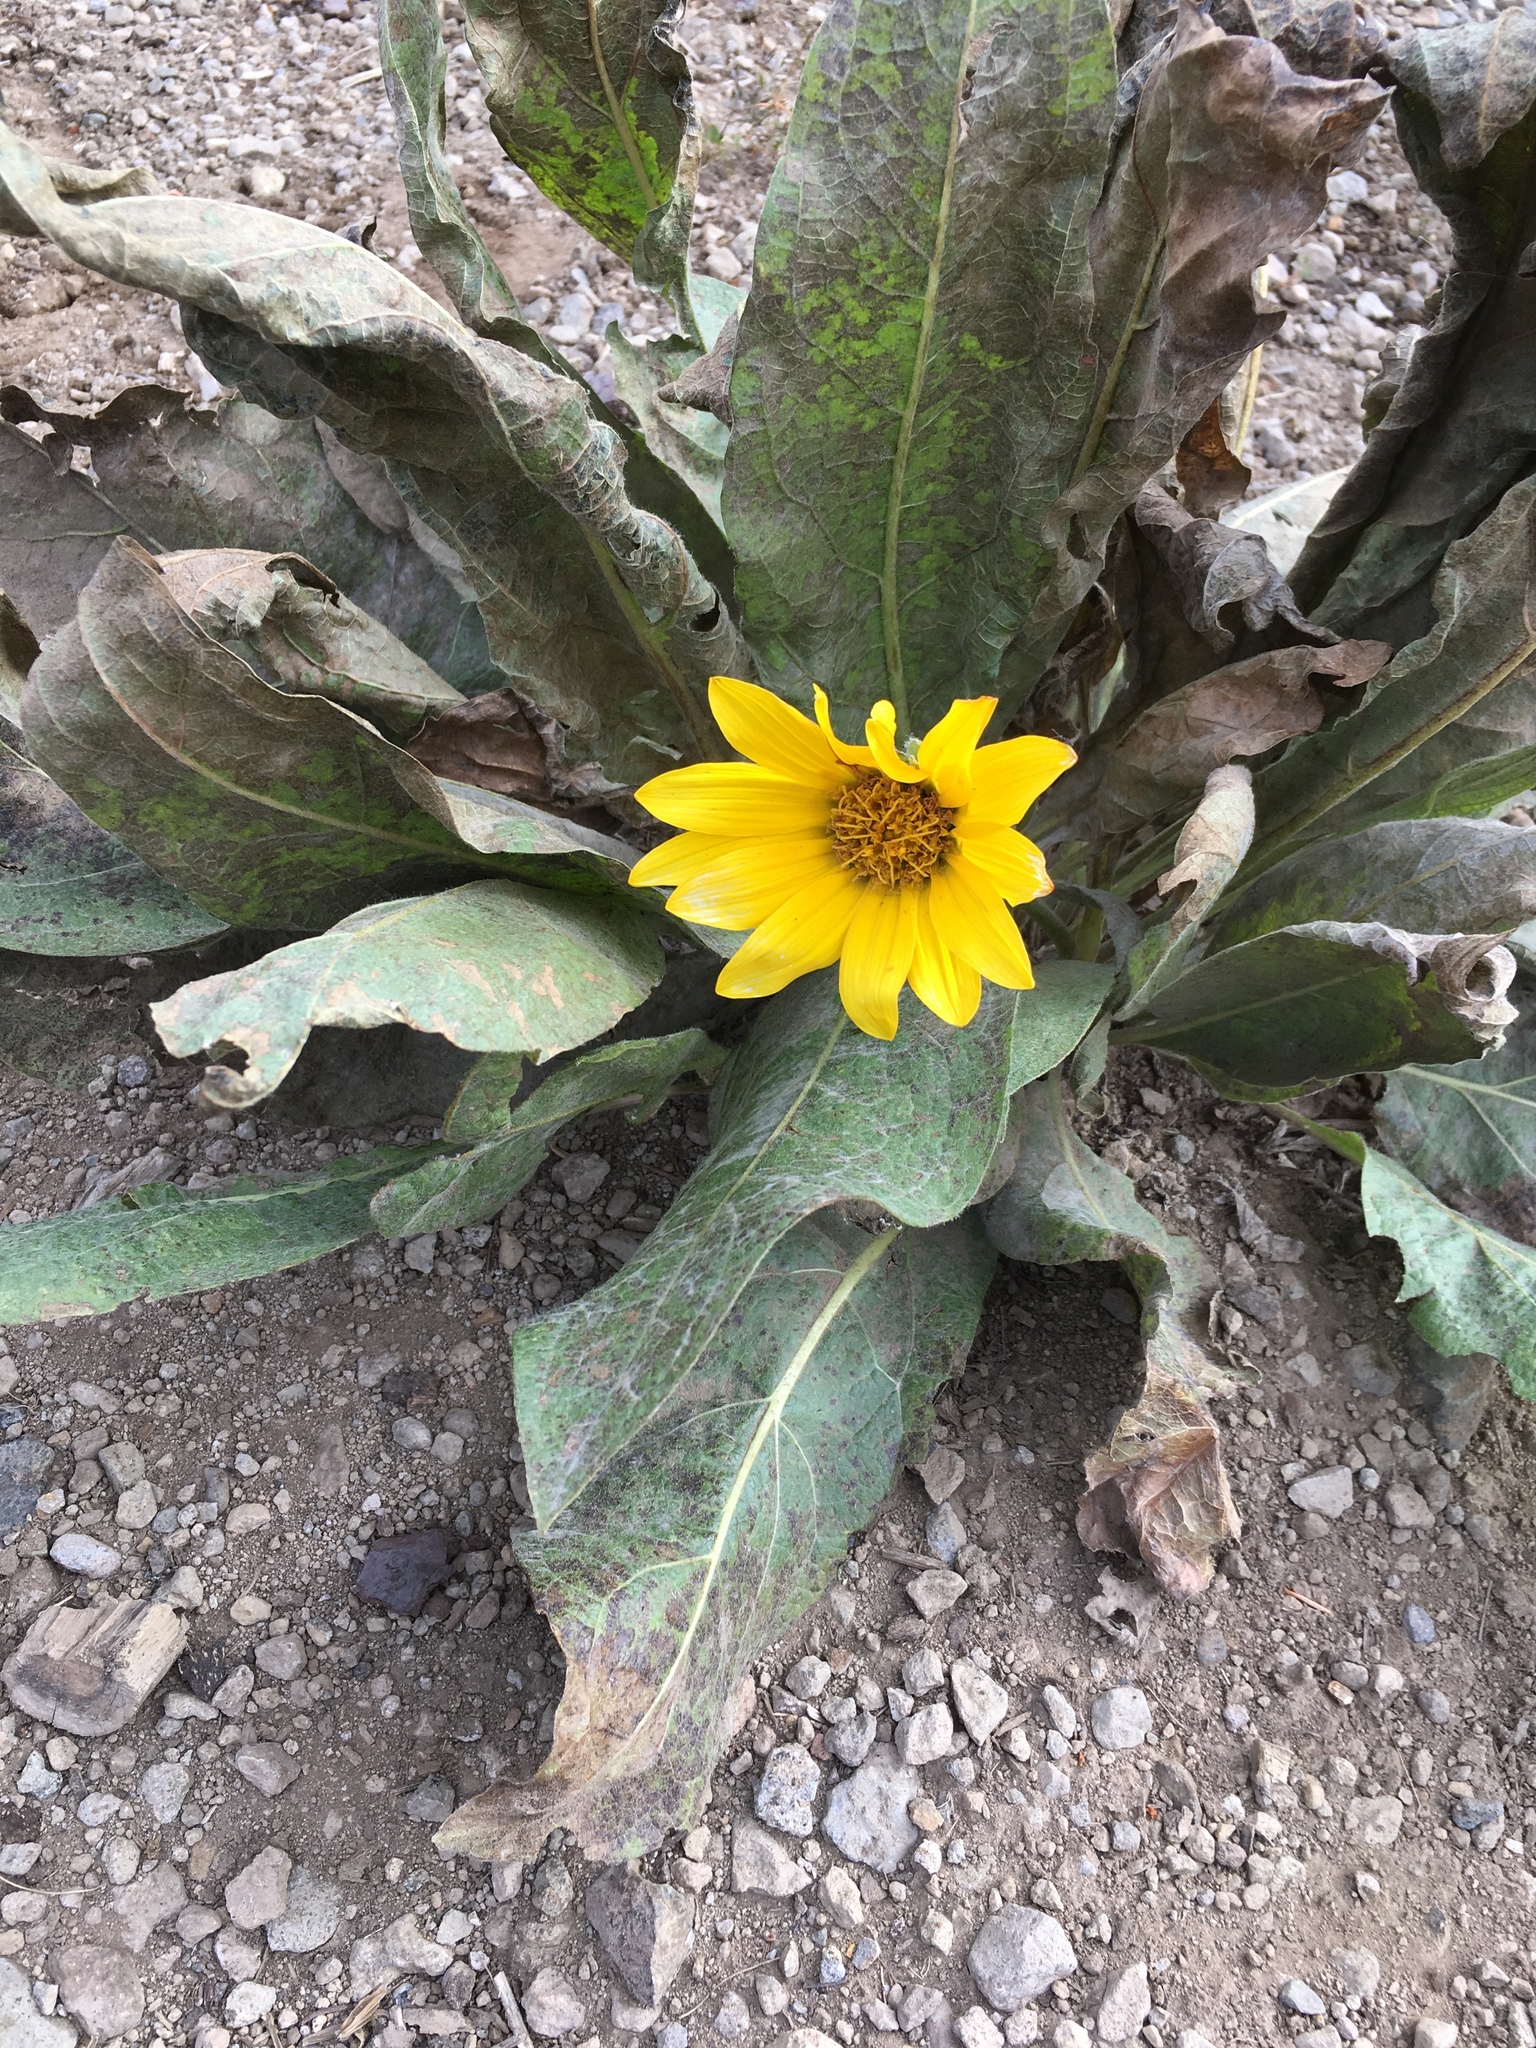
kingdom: Plantae
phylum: Tracheophyta
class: Magnoliopsida
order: Asterales
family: Asteraceae
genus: Wyethia
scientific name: Wyethia mollis
